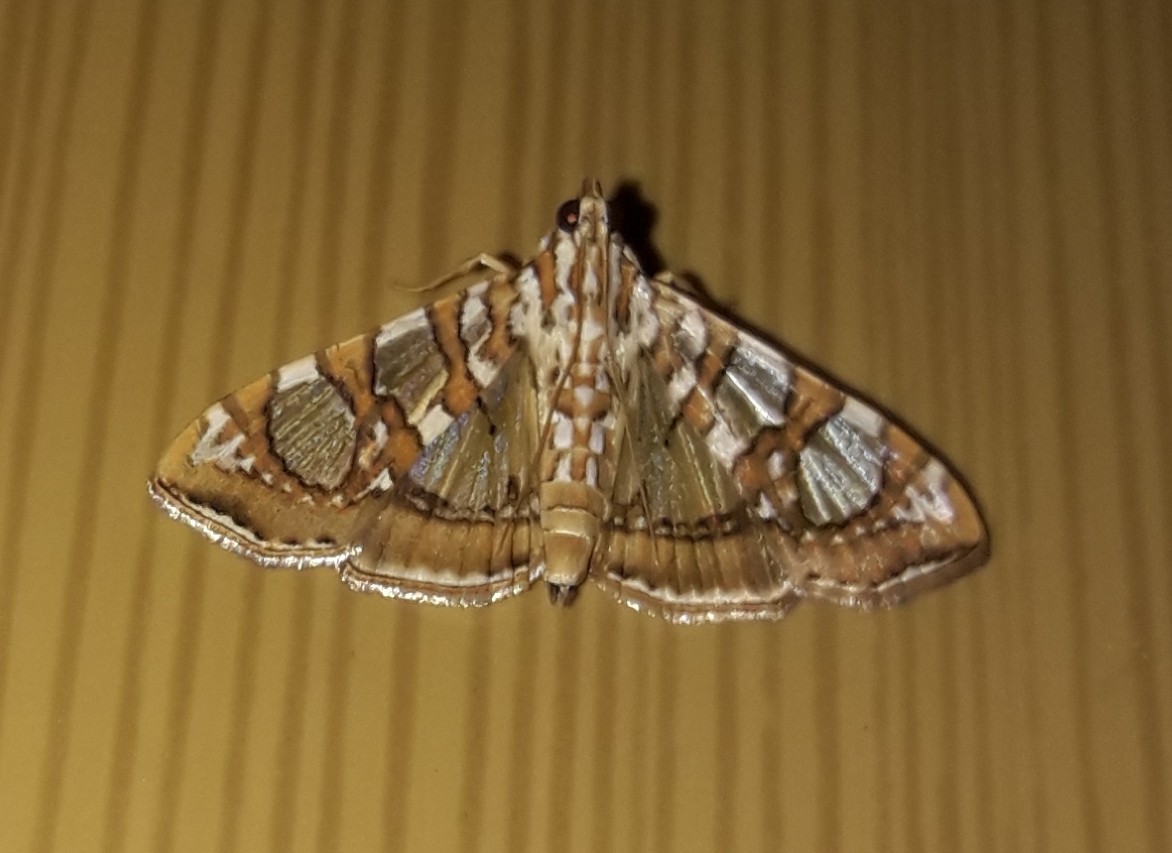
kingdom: Animalia
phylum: Arthropoda
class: Insecta
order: Lepidoptera
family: Crambidae
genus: Glyphodes
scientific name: Glyphodes sibillalis
